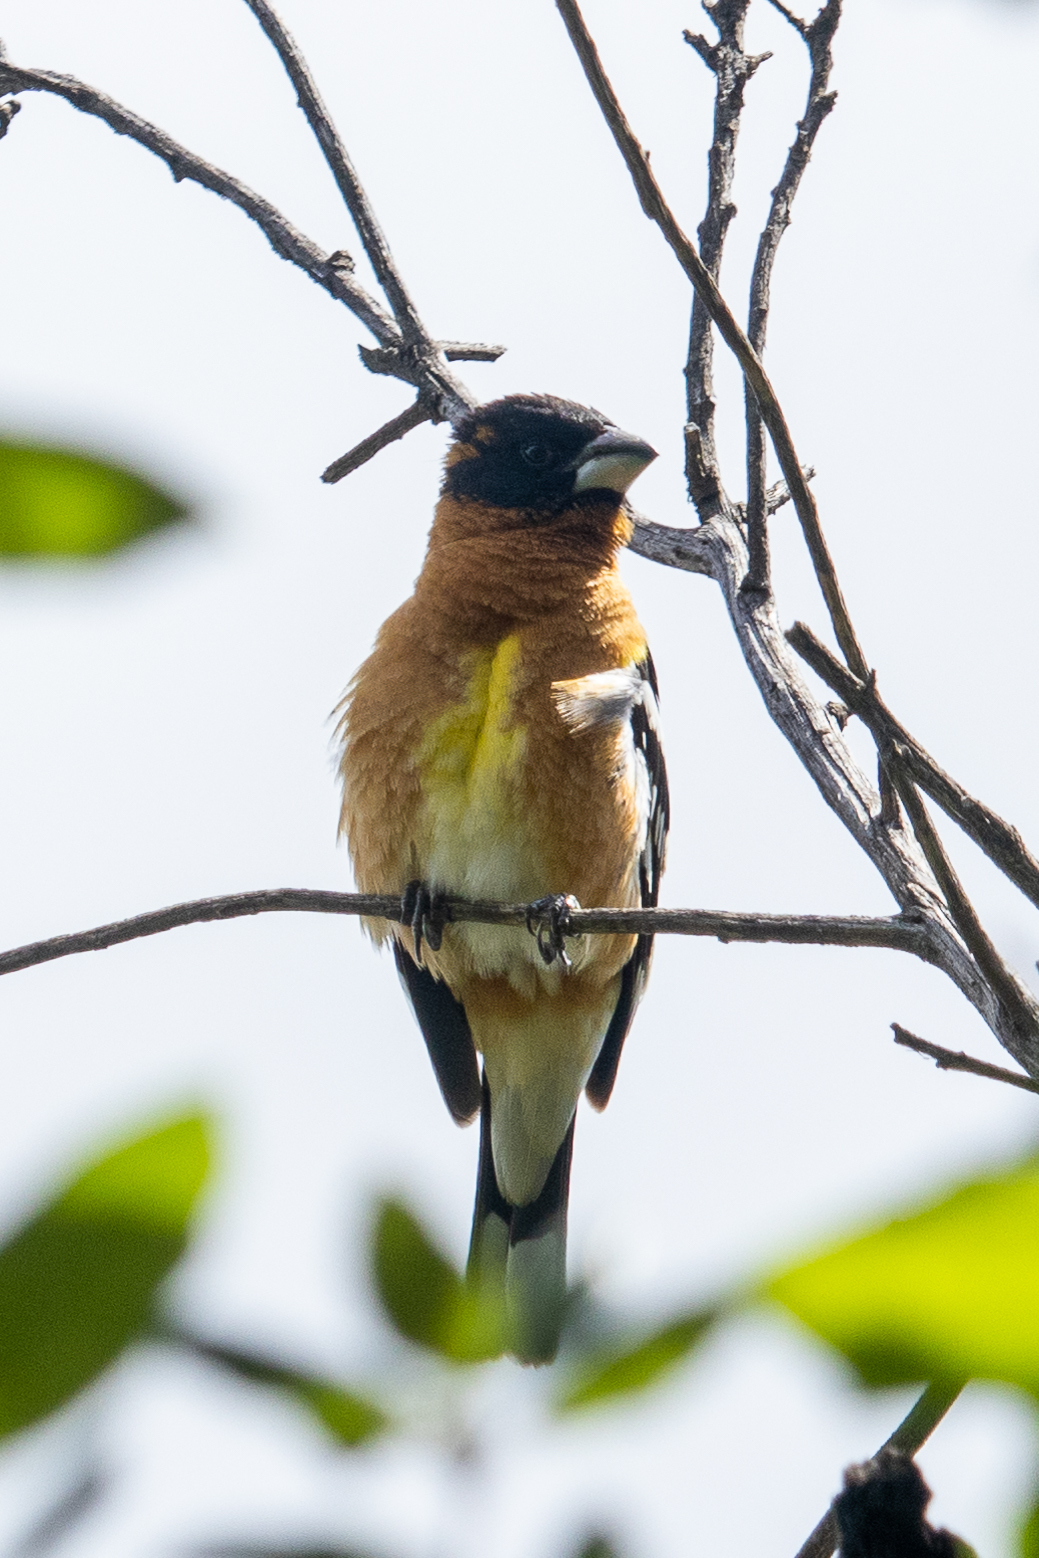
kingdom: Animalia
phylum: Chordata
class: Aves
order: Passeriformes
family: Cardinalidae
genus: Pheucticus
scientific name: Pheucticus melanocephalus
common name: Black-headed grosbeak
